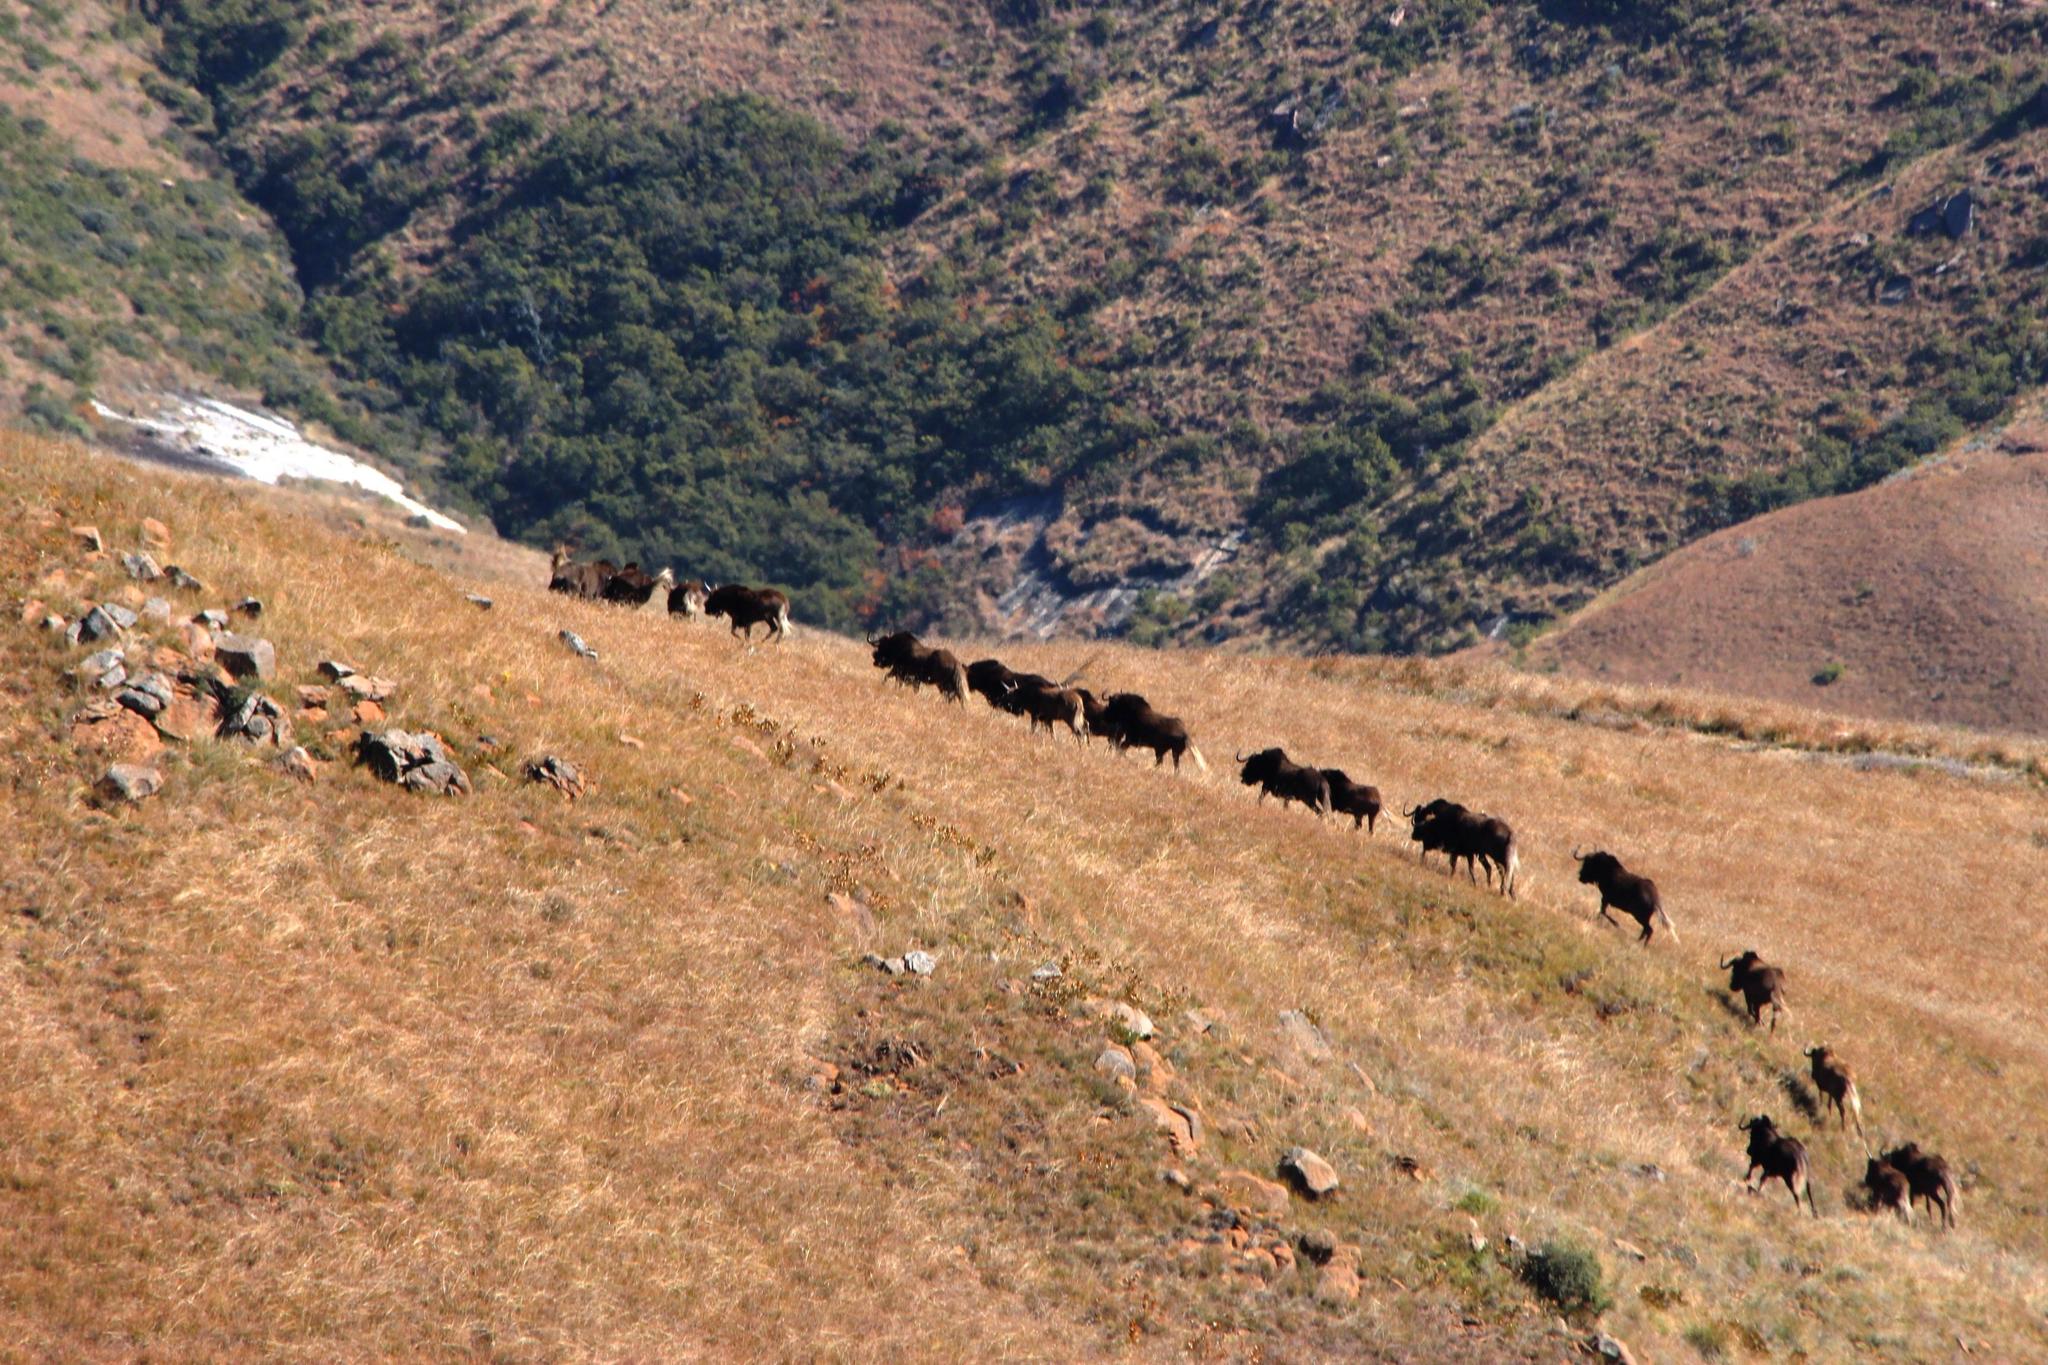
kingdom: Animalia
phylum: Chordata
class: Mammalia
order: Artiodactyla
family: Bovidae
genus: Connochaetes
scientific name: Connochaetes gnou
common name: Black wildebeest
